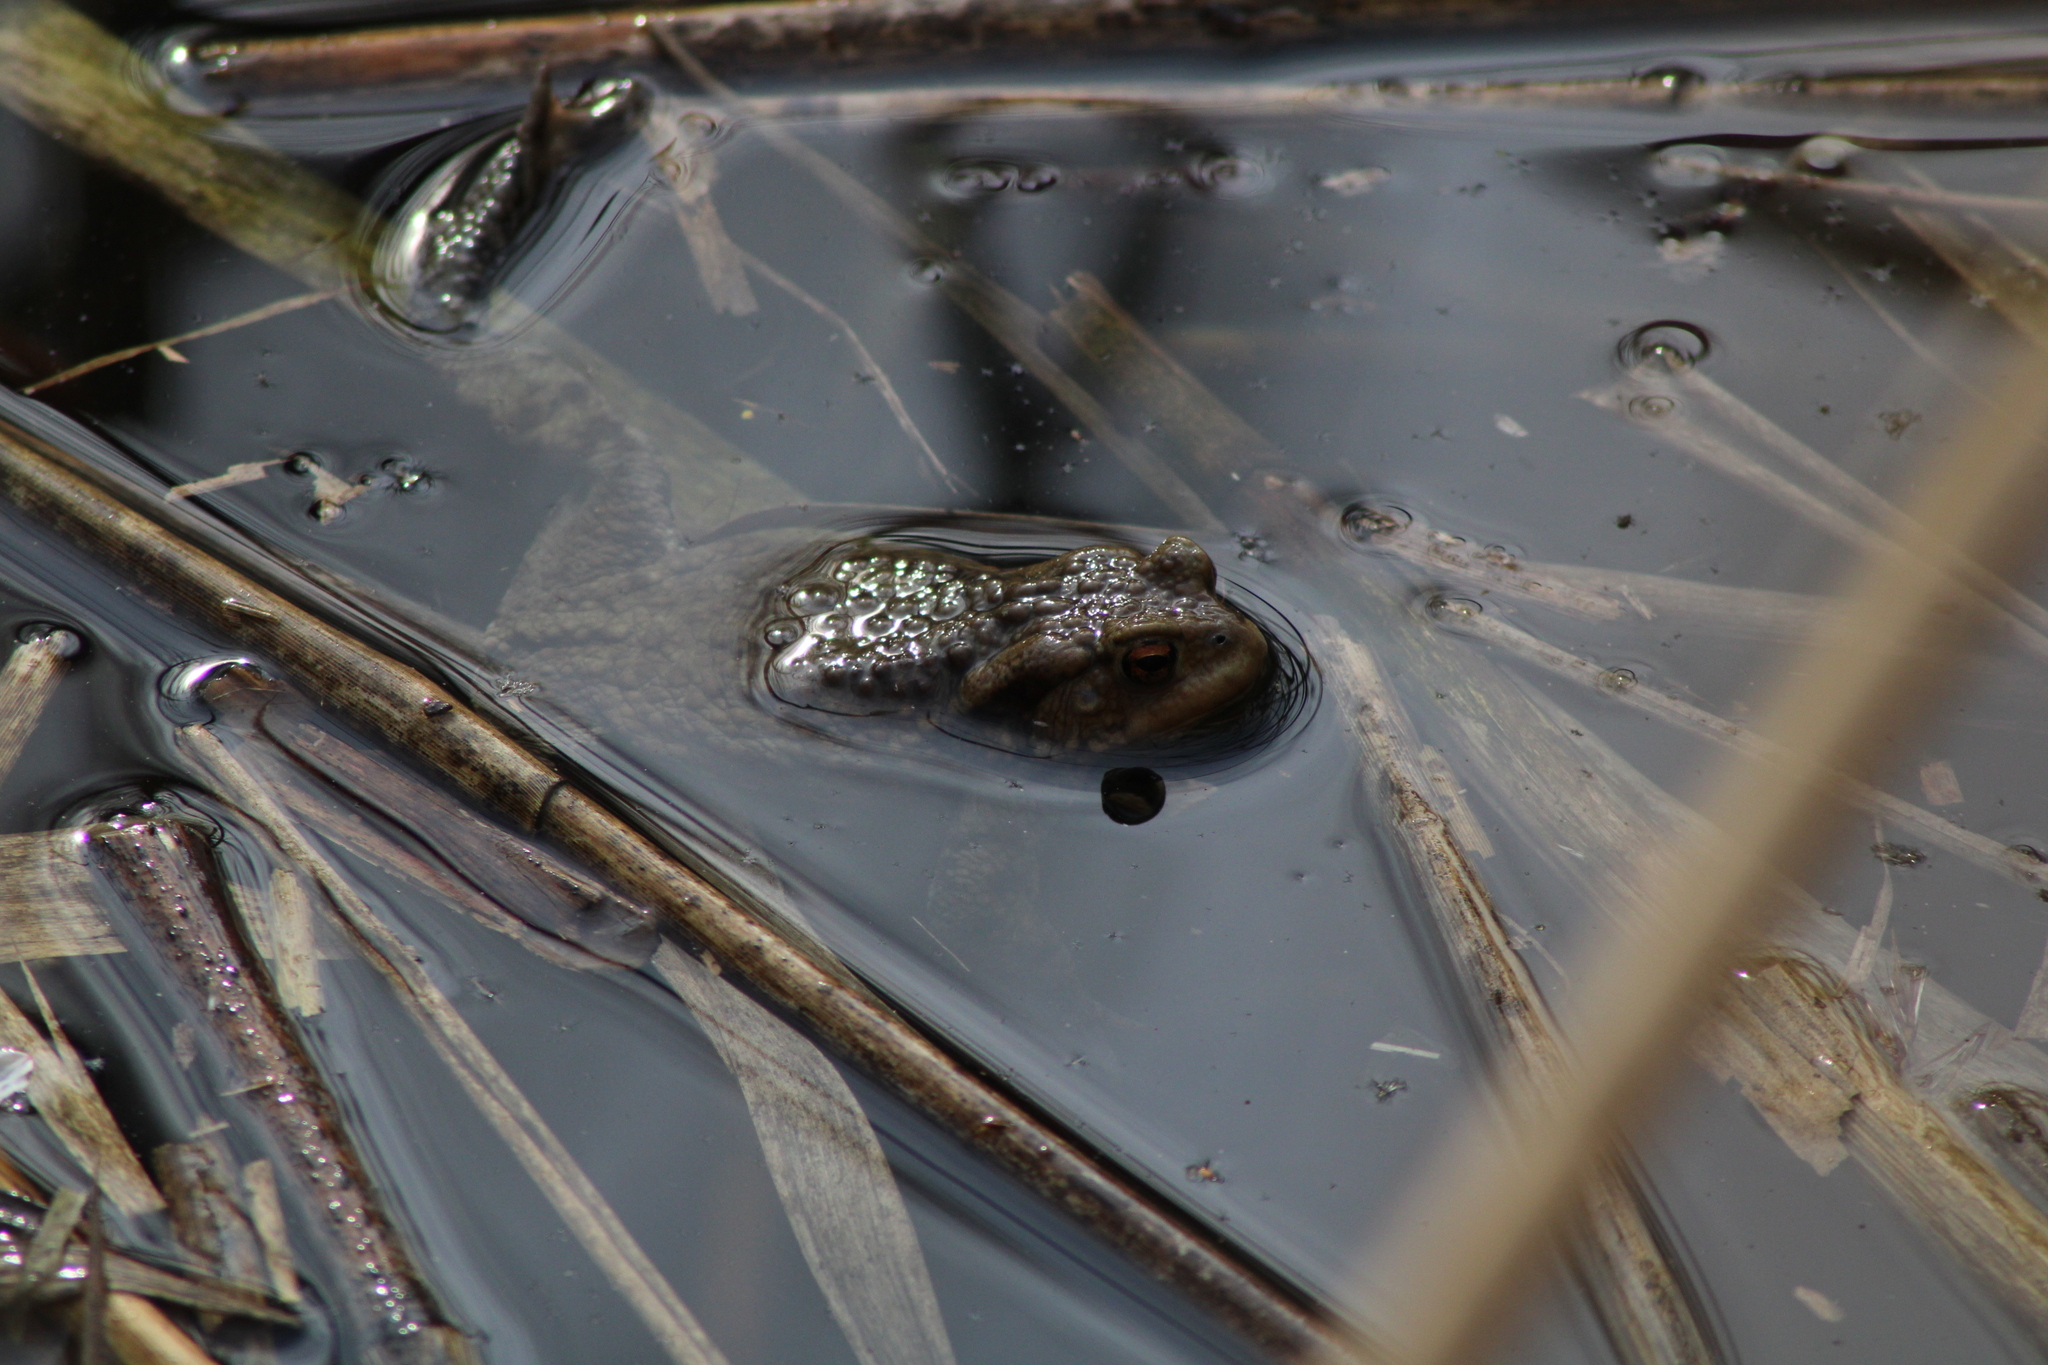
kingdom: Animalia
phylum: Chordata
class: Amphibia
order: Anura
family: Bufonidae
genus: Bufo
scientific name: Bufo bufo
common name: Common toad
